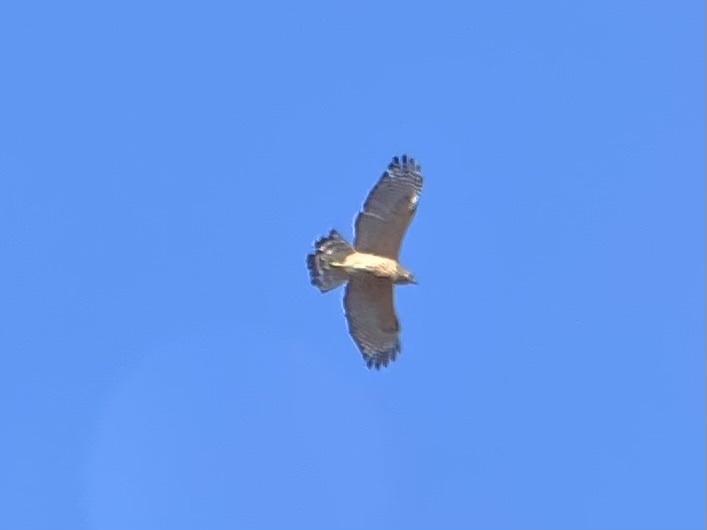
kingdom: Animalia
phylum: Chordata
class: Aves
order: Accipitriformes
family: Accipitridae
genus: Buteo
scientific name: Buteo lineatus
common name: Red-shouldered hawk
